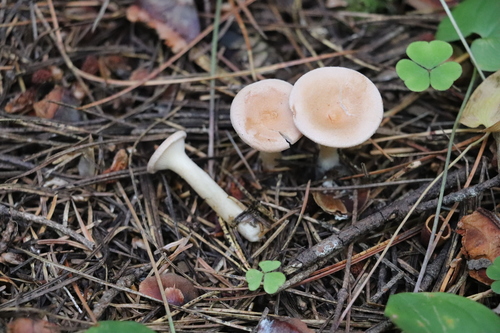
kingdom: Fungi
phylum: Basidiomycota
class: Agaricomycetes
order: Agaricales
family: Tricholomataceae
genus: Infundibulicybe
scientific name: Infundibulicybe gibba
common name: Common funnel
